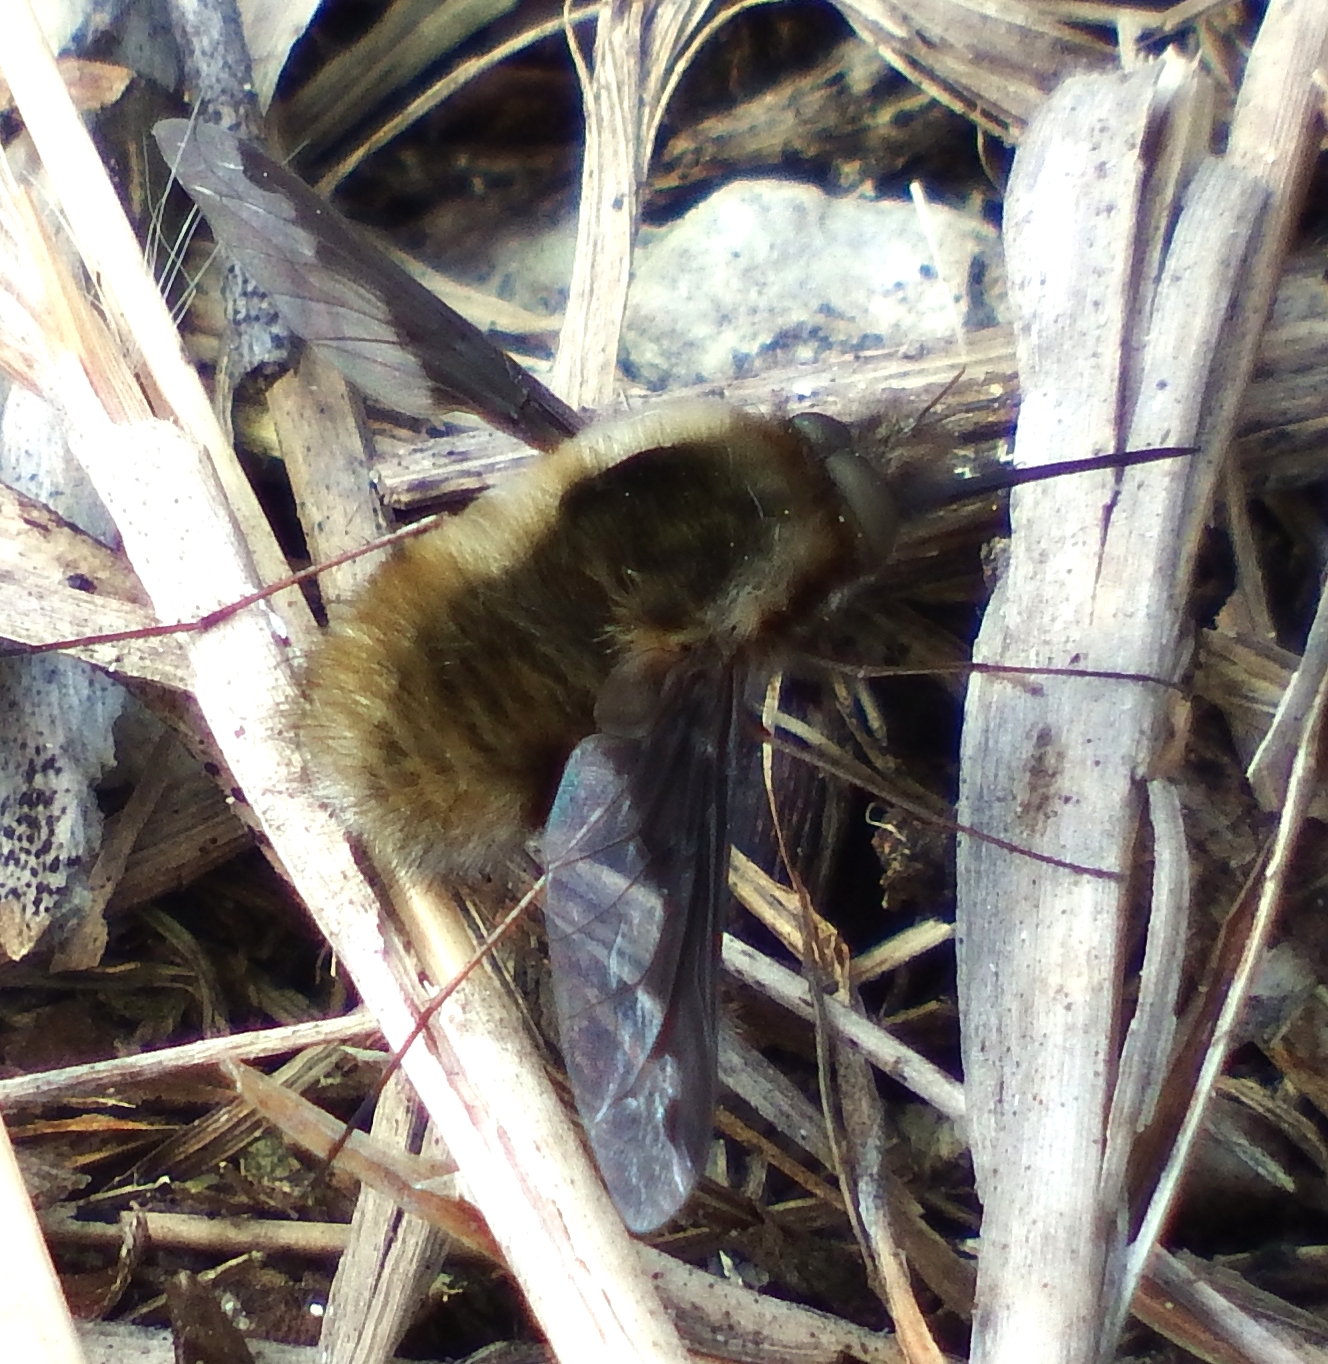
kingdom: Animalia
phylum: Arthropoda
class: Insecta
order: Diptera
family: Bombyliidae
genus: Bombylius
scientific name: Bombylius major
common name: Bee fly
